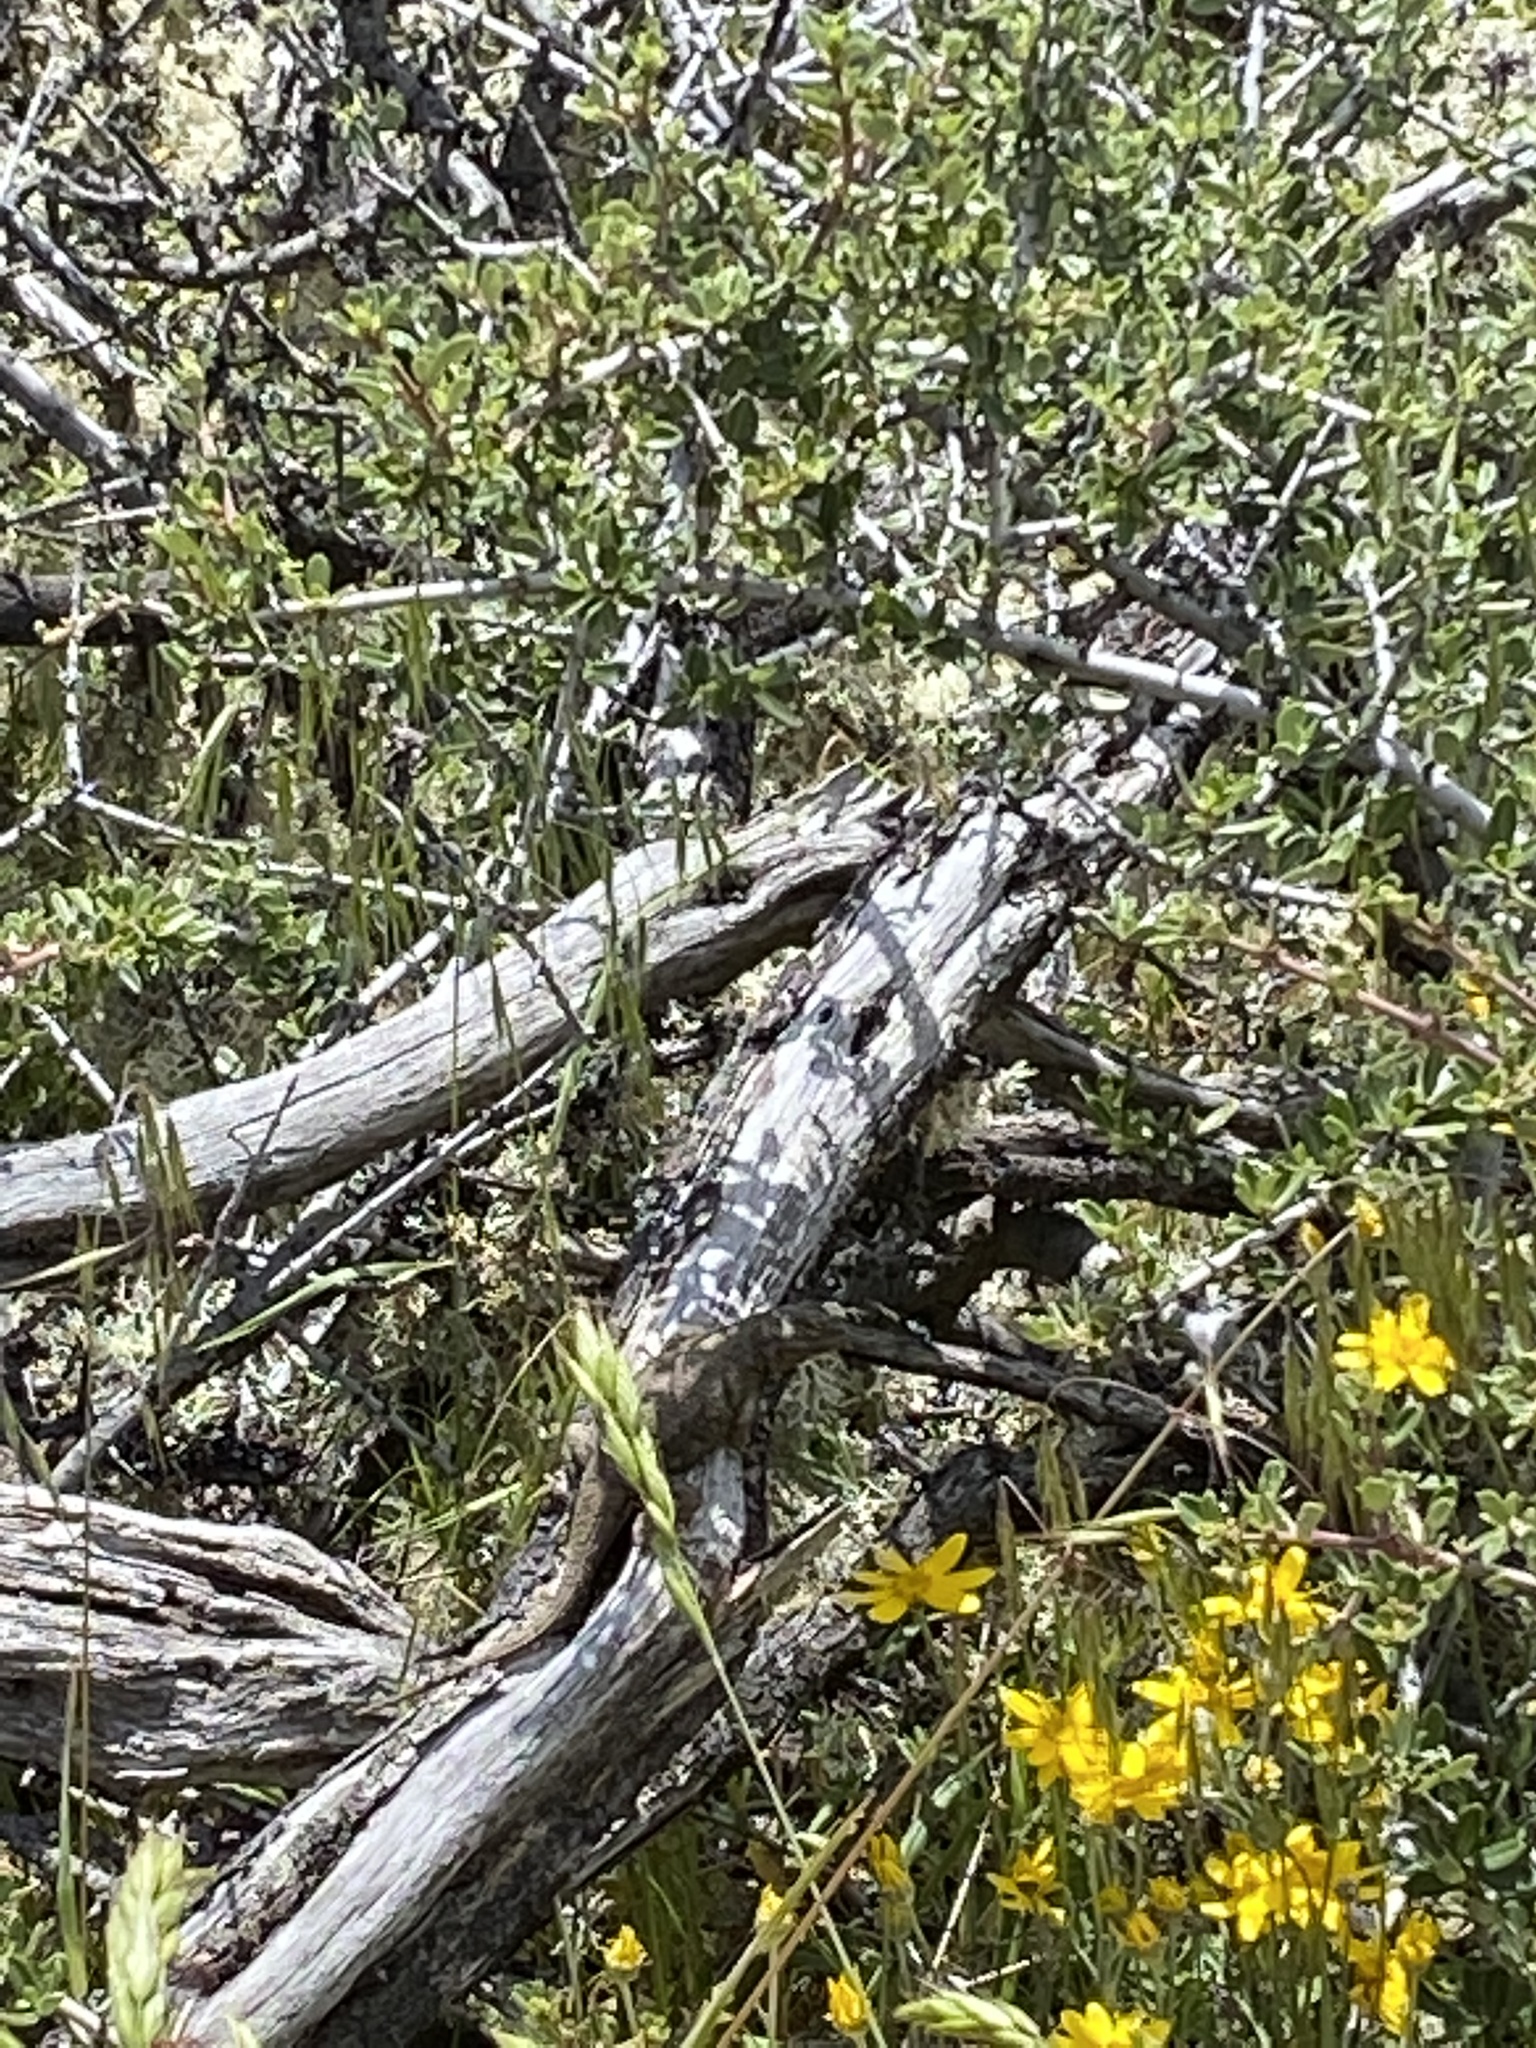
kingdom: Animalia
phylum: Chordata
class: Squamata
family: Phrynosomatidae
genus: Sceloporus
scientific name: Sceloporus occidentalis
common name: Western fence lizard
